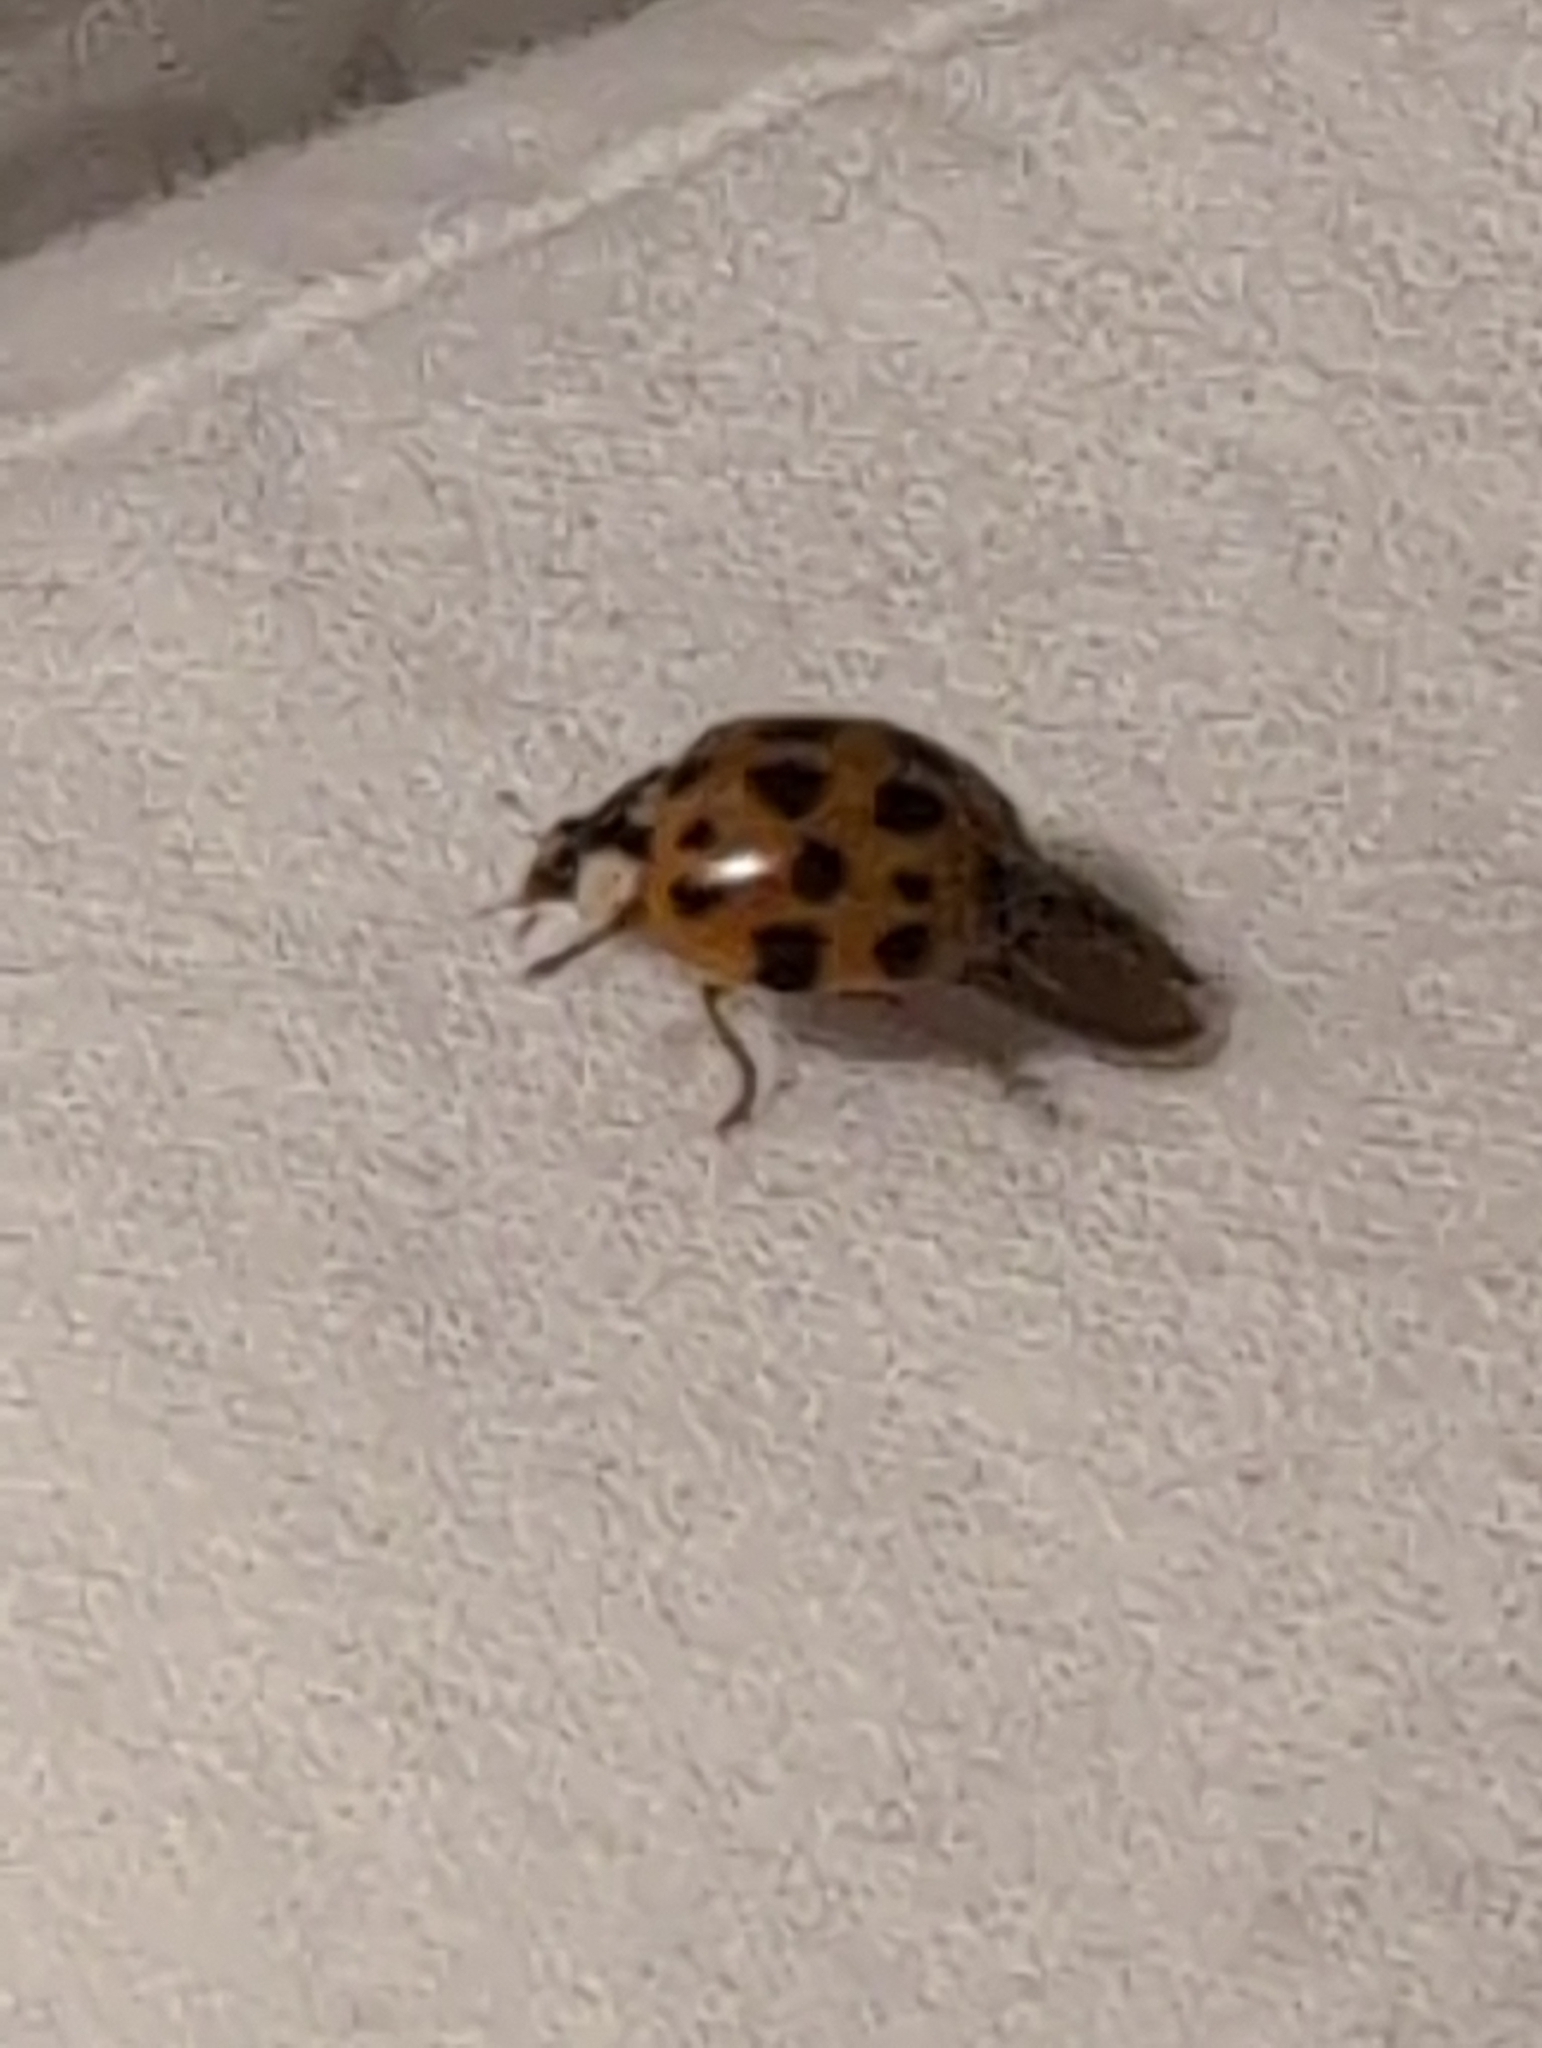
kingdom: Animalia
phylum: Arthropoda
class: Insecta
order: Coleoptera
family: Coccinellidae
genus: Harmonia
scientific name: Harmonia axyridis
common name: Harlequin ladybird
